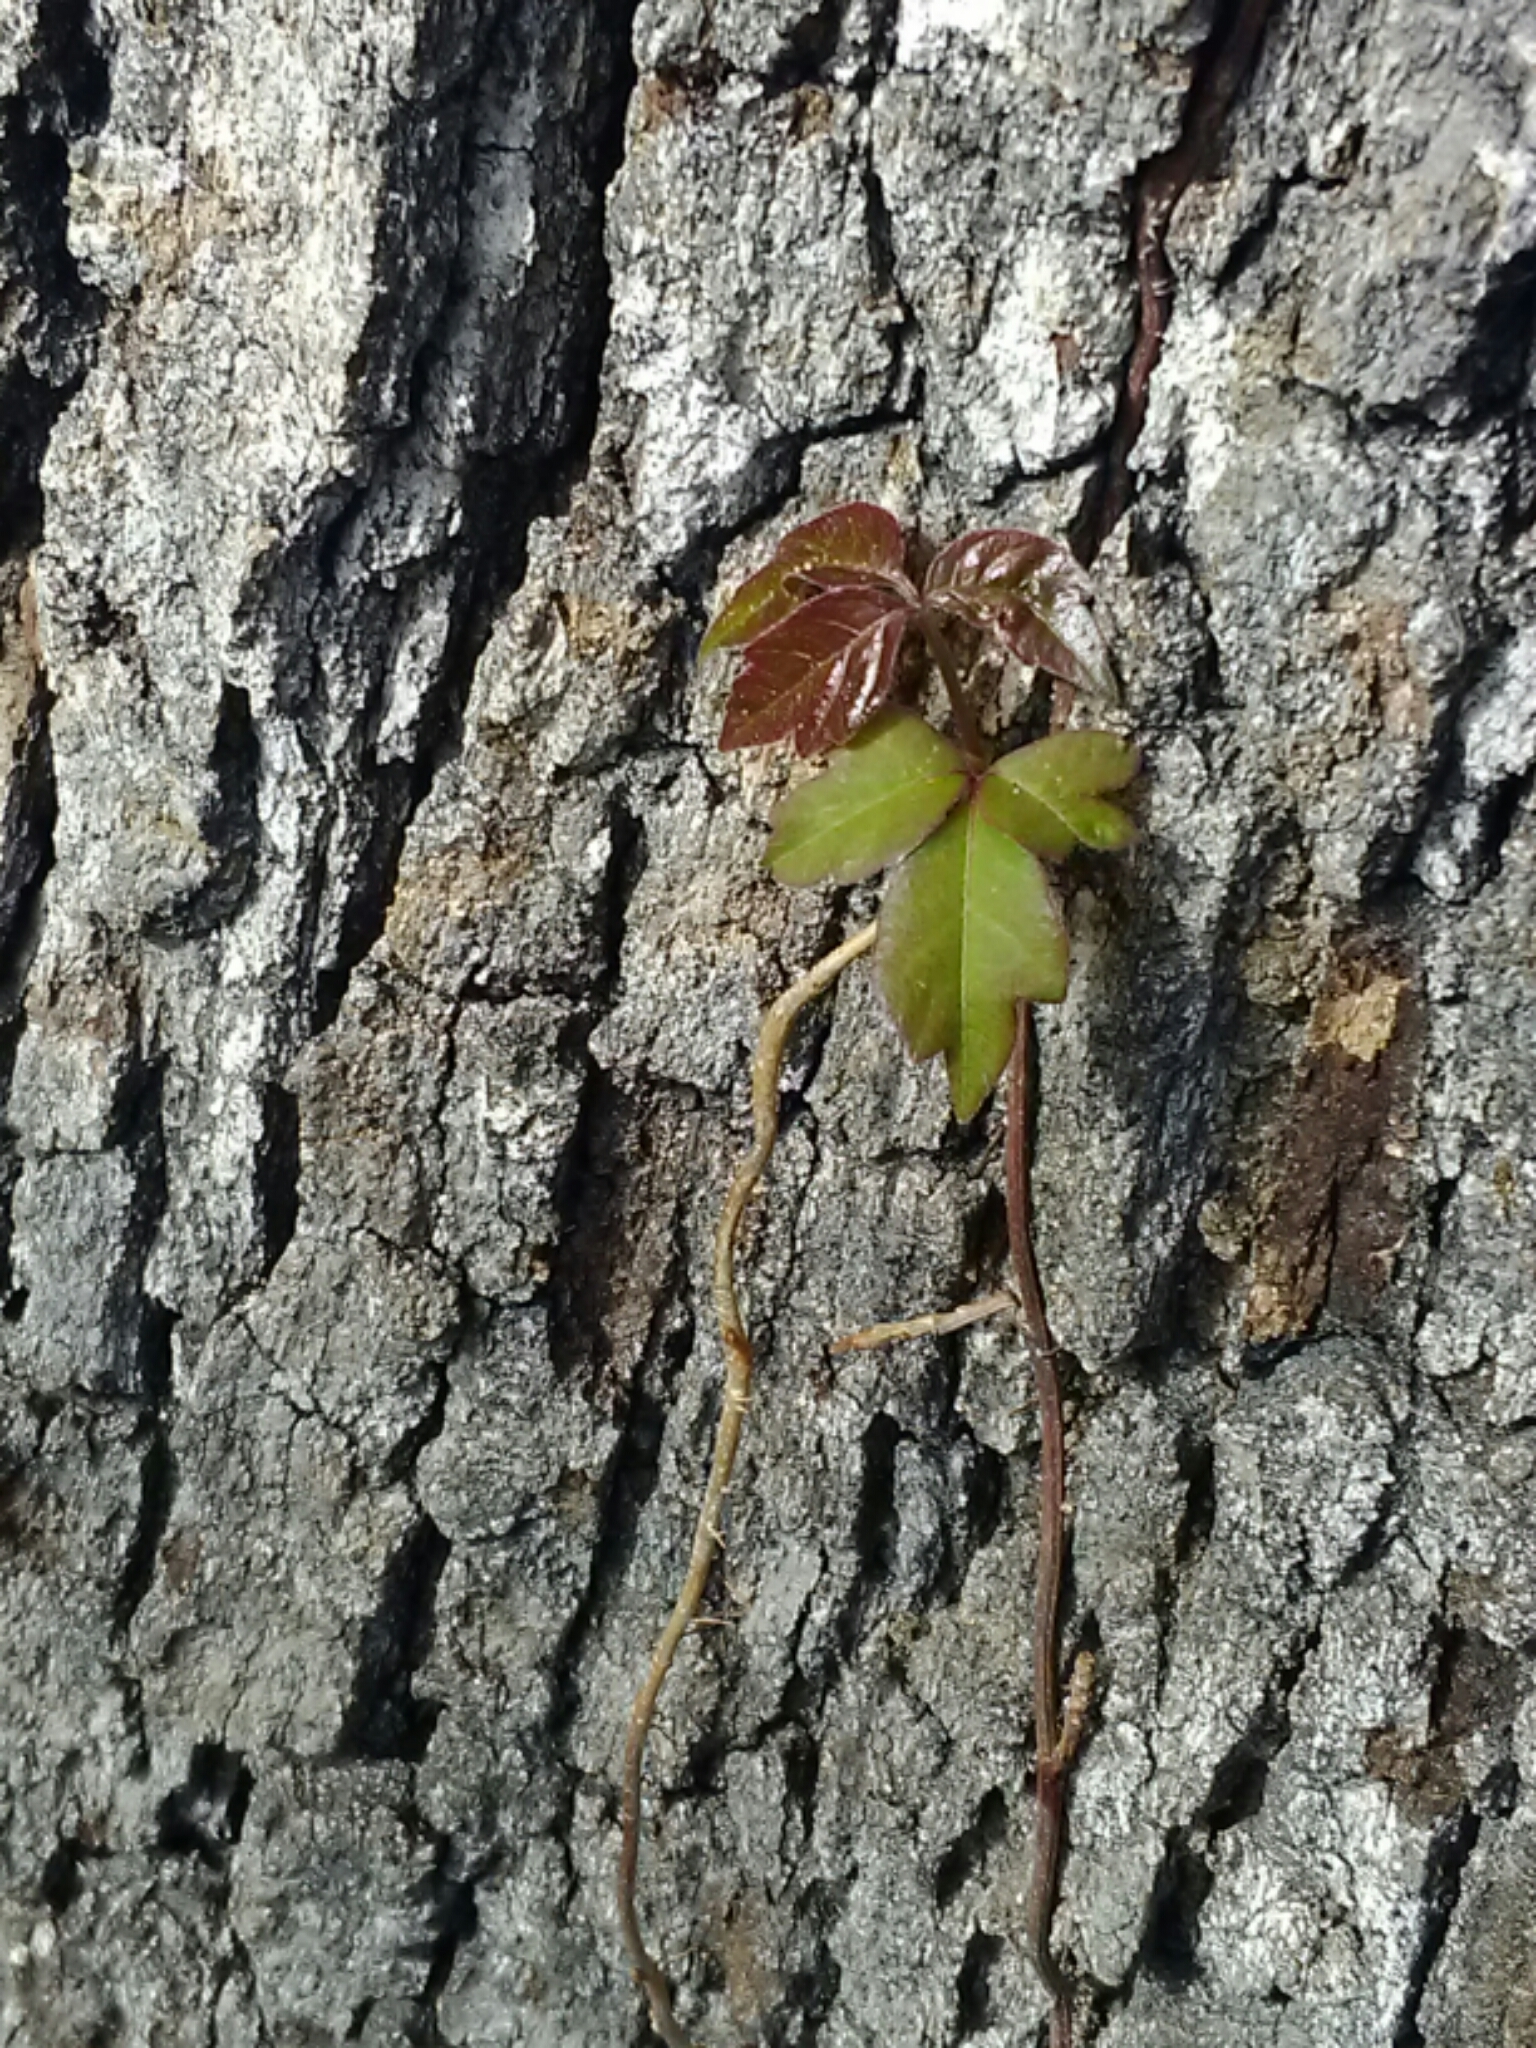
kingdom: Plantae
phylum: Tracheophyta
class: Magnoliopsida
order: Sapindales
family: Anacardiaceae
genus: Toxicodendron
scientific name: Toxicodendron radicans
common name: Poison ivy
